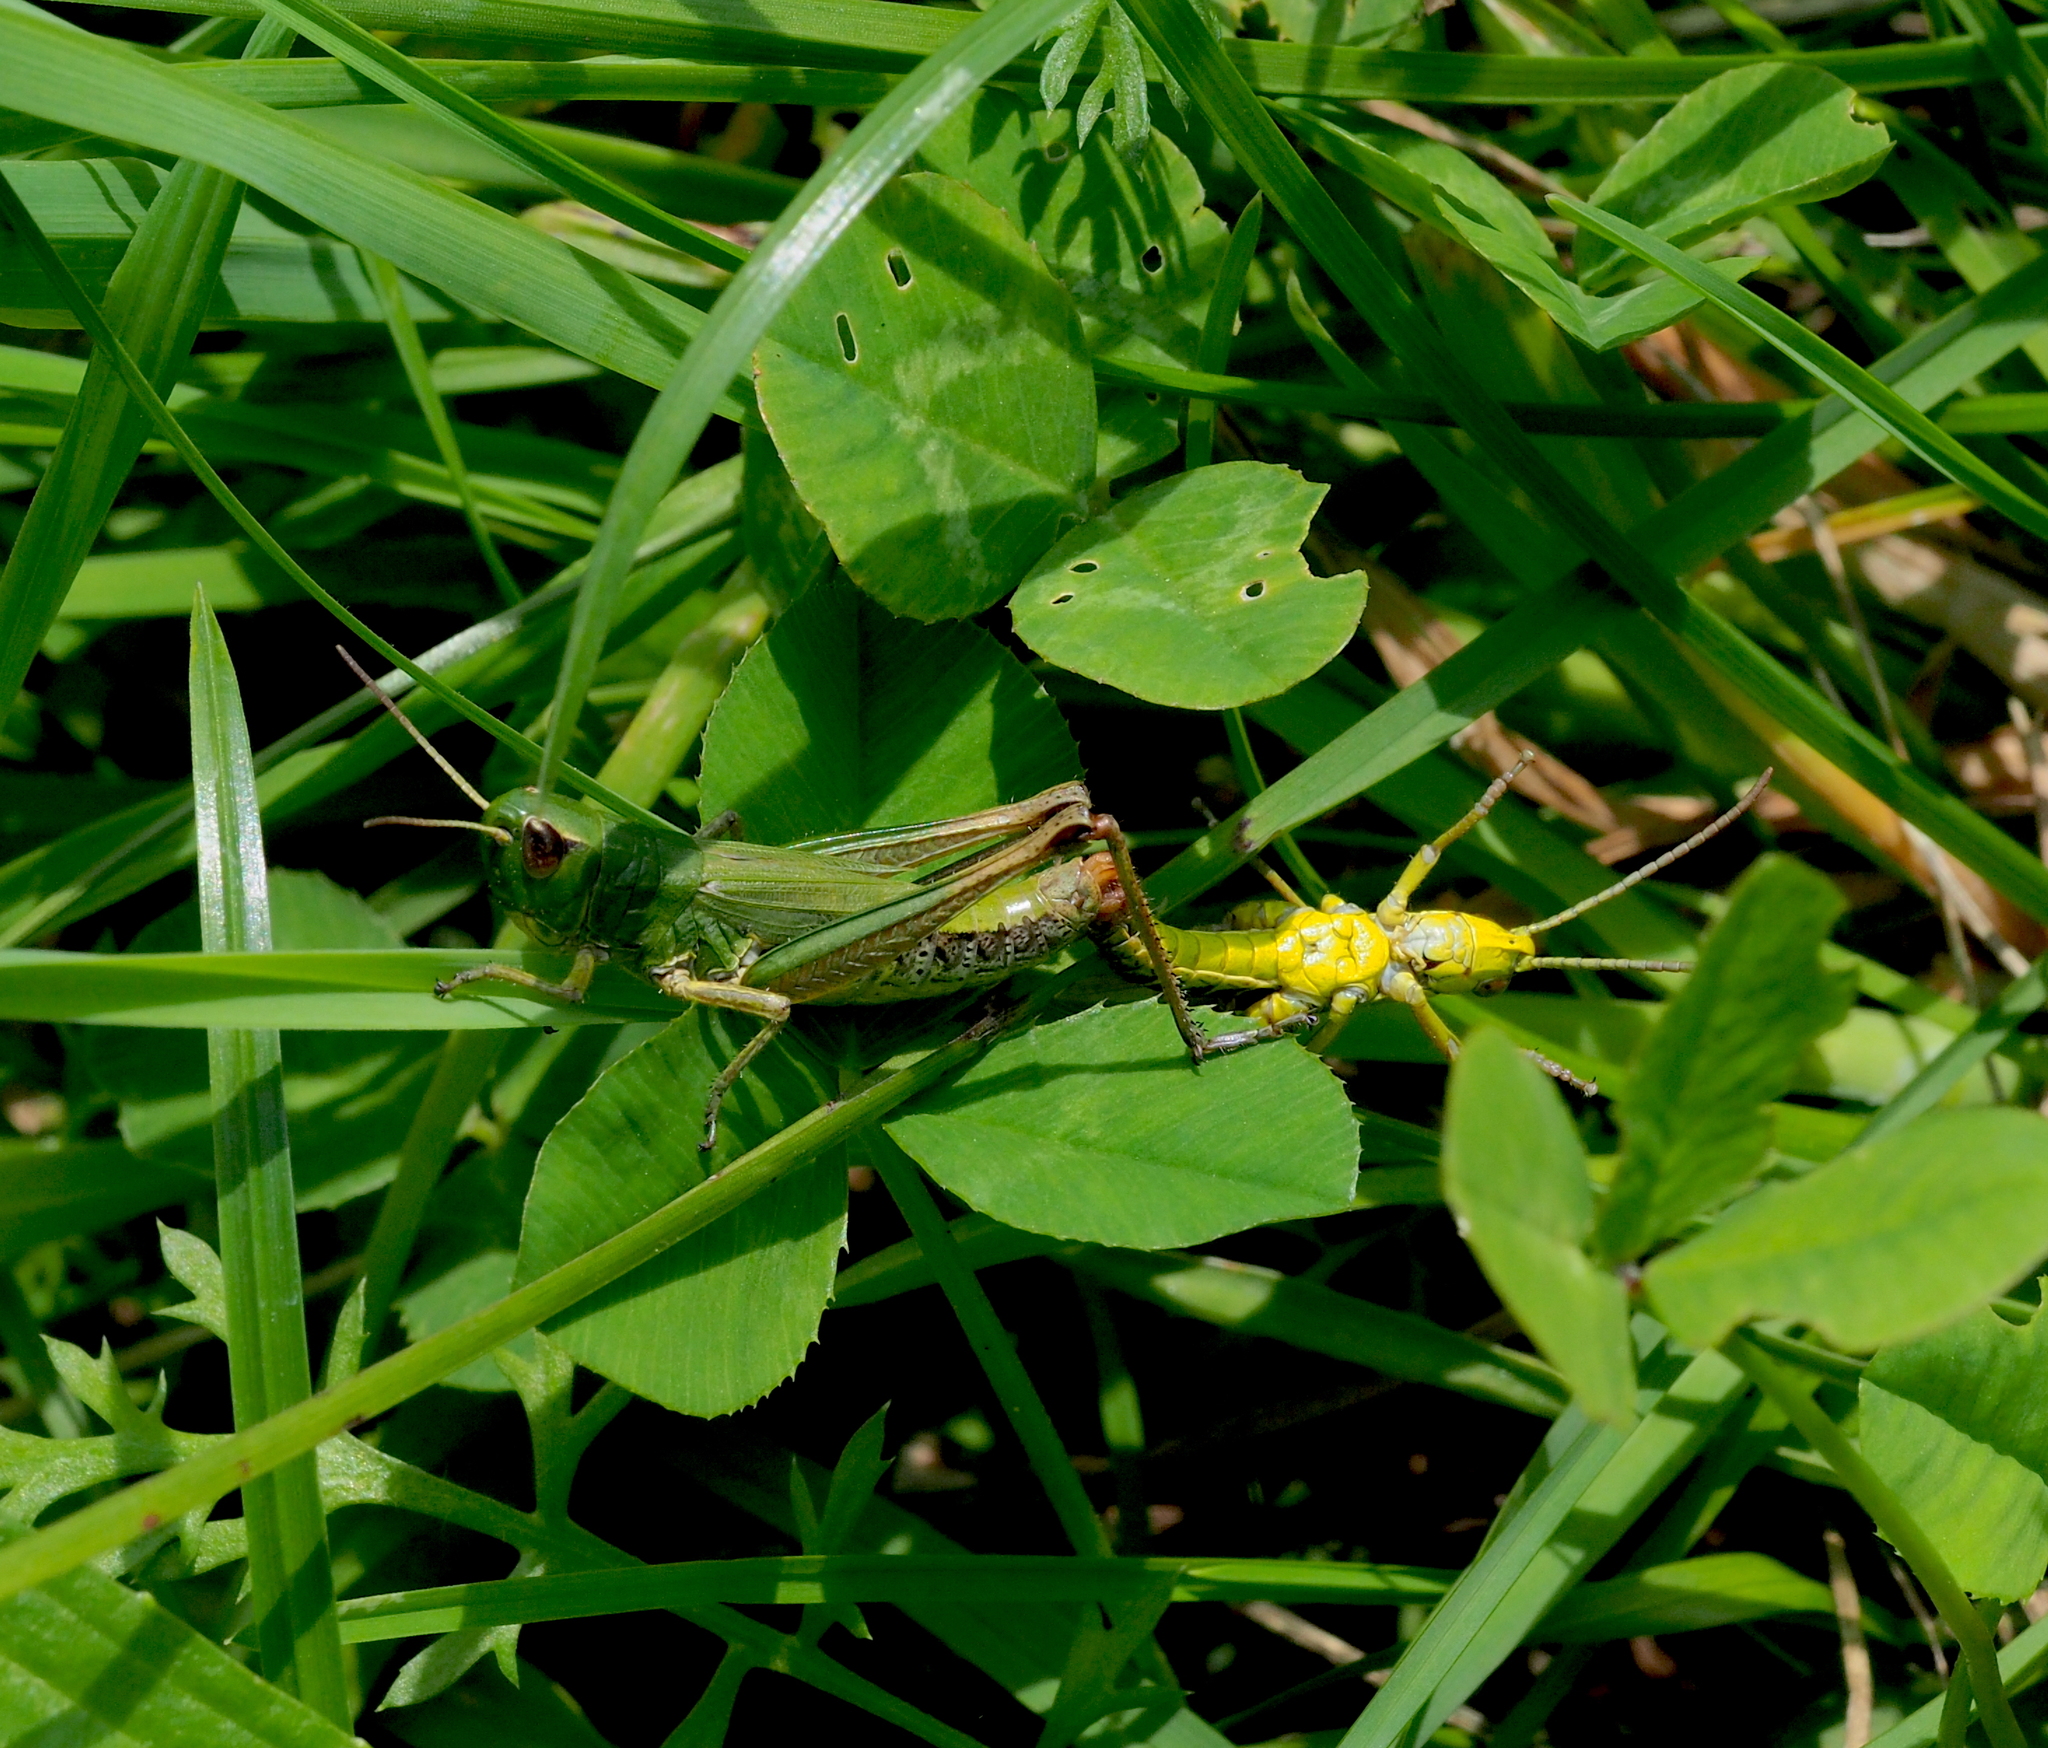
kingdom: Animalia
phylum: Arthropoda
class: Insecta
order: Orthoptera
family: Acrididae
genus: Pseudochorthippus
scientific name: Pseudochorthippus parallelus
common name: Meadow grasshopper
